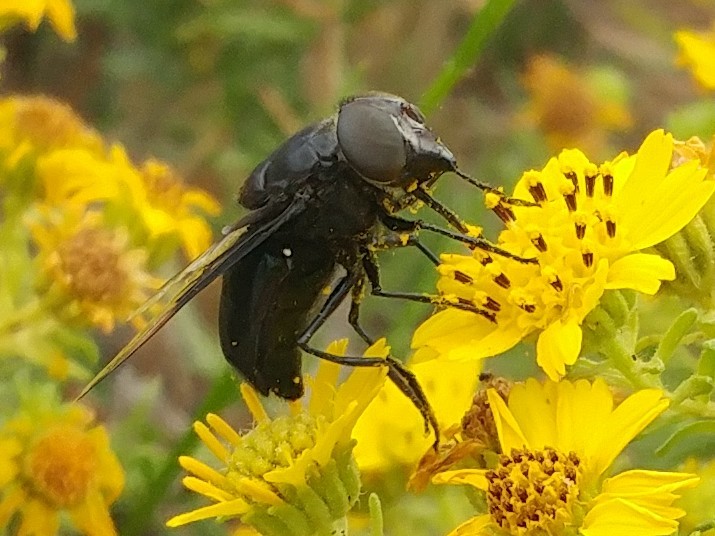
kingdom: Animalia
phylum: Arthropoda
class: Insecta
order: Diptera
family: Syrphidae
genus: Copestylum
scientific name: Copestylum mexicanum
